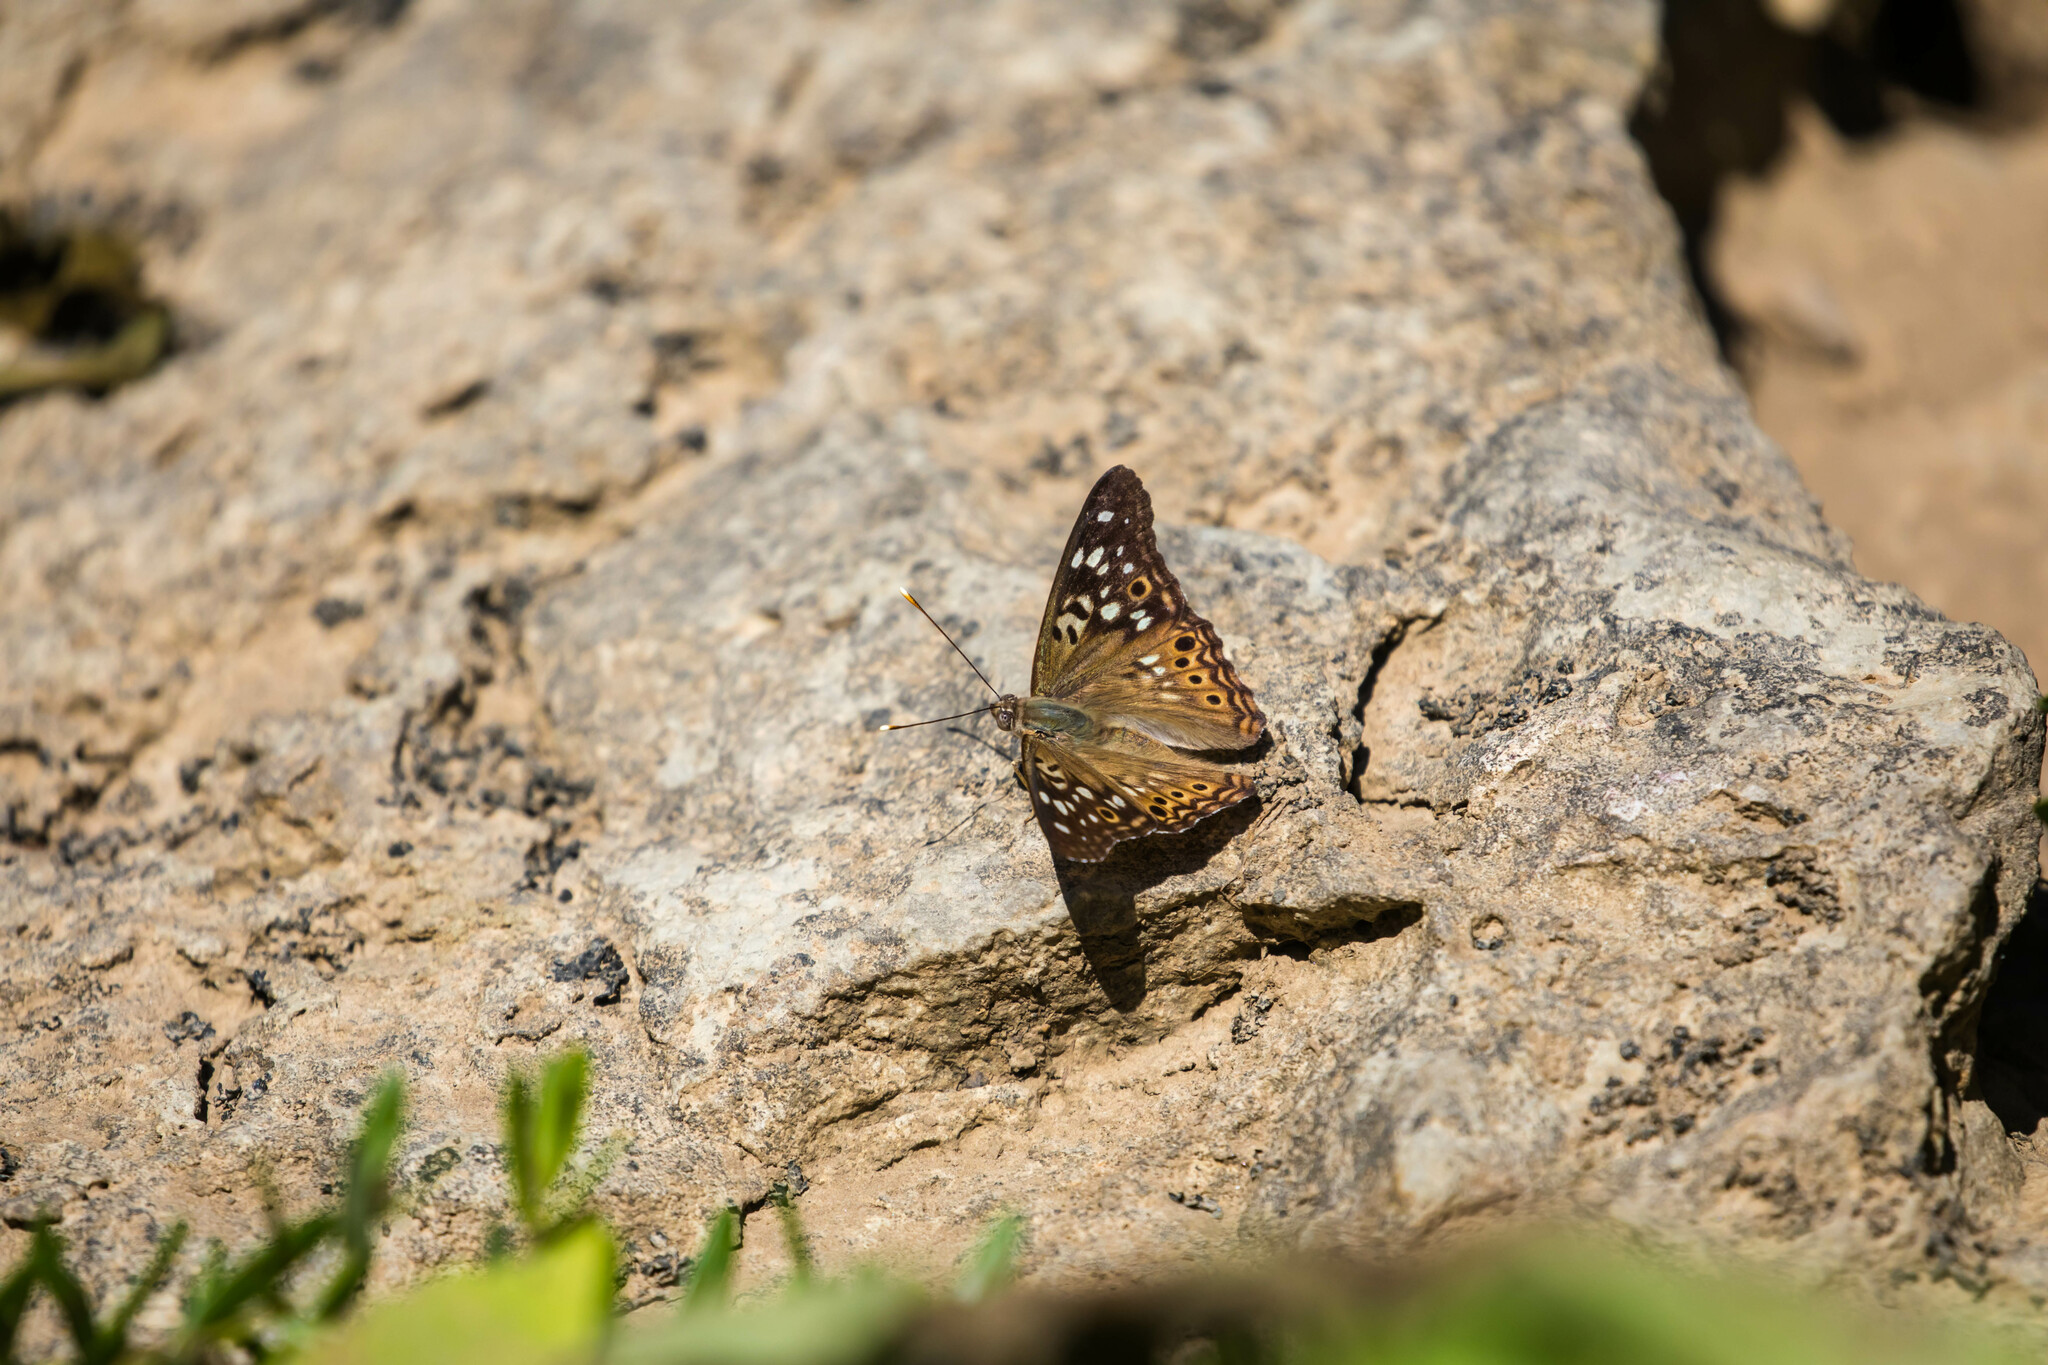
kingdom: Animalia
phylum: Arthropoda
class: Insecta
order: Lepidoptera
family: Nymphalidae
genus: Asterocampa
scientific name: Asterocampa celtis
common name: Hackberry emperor
